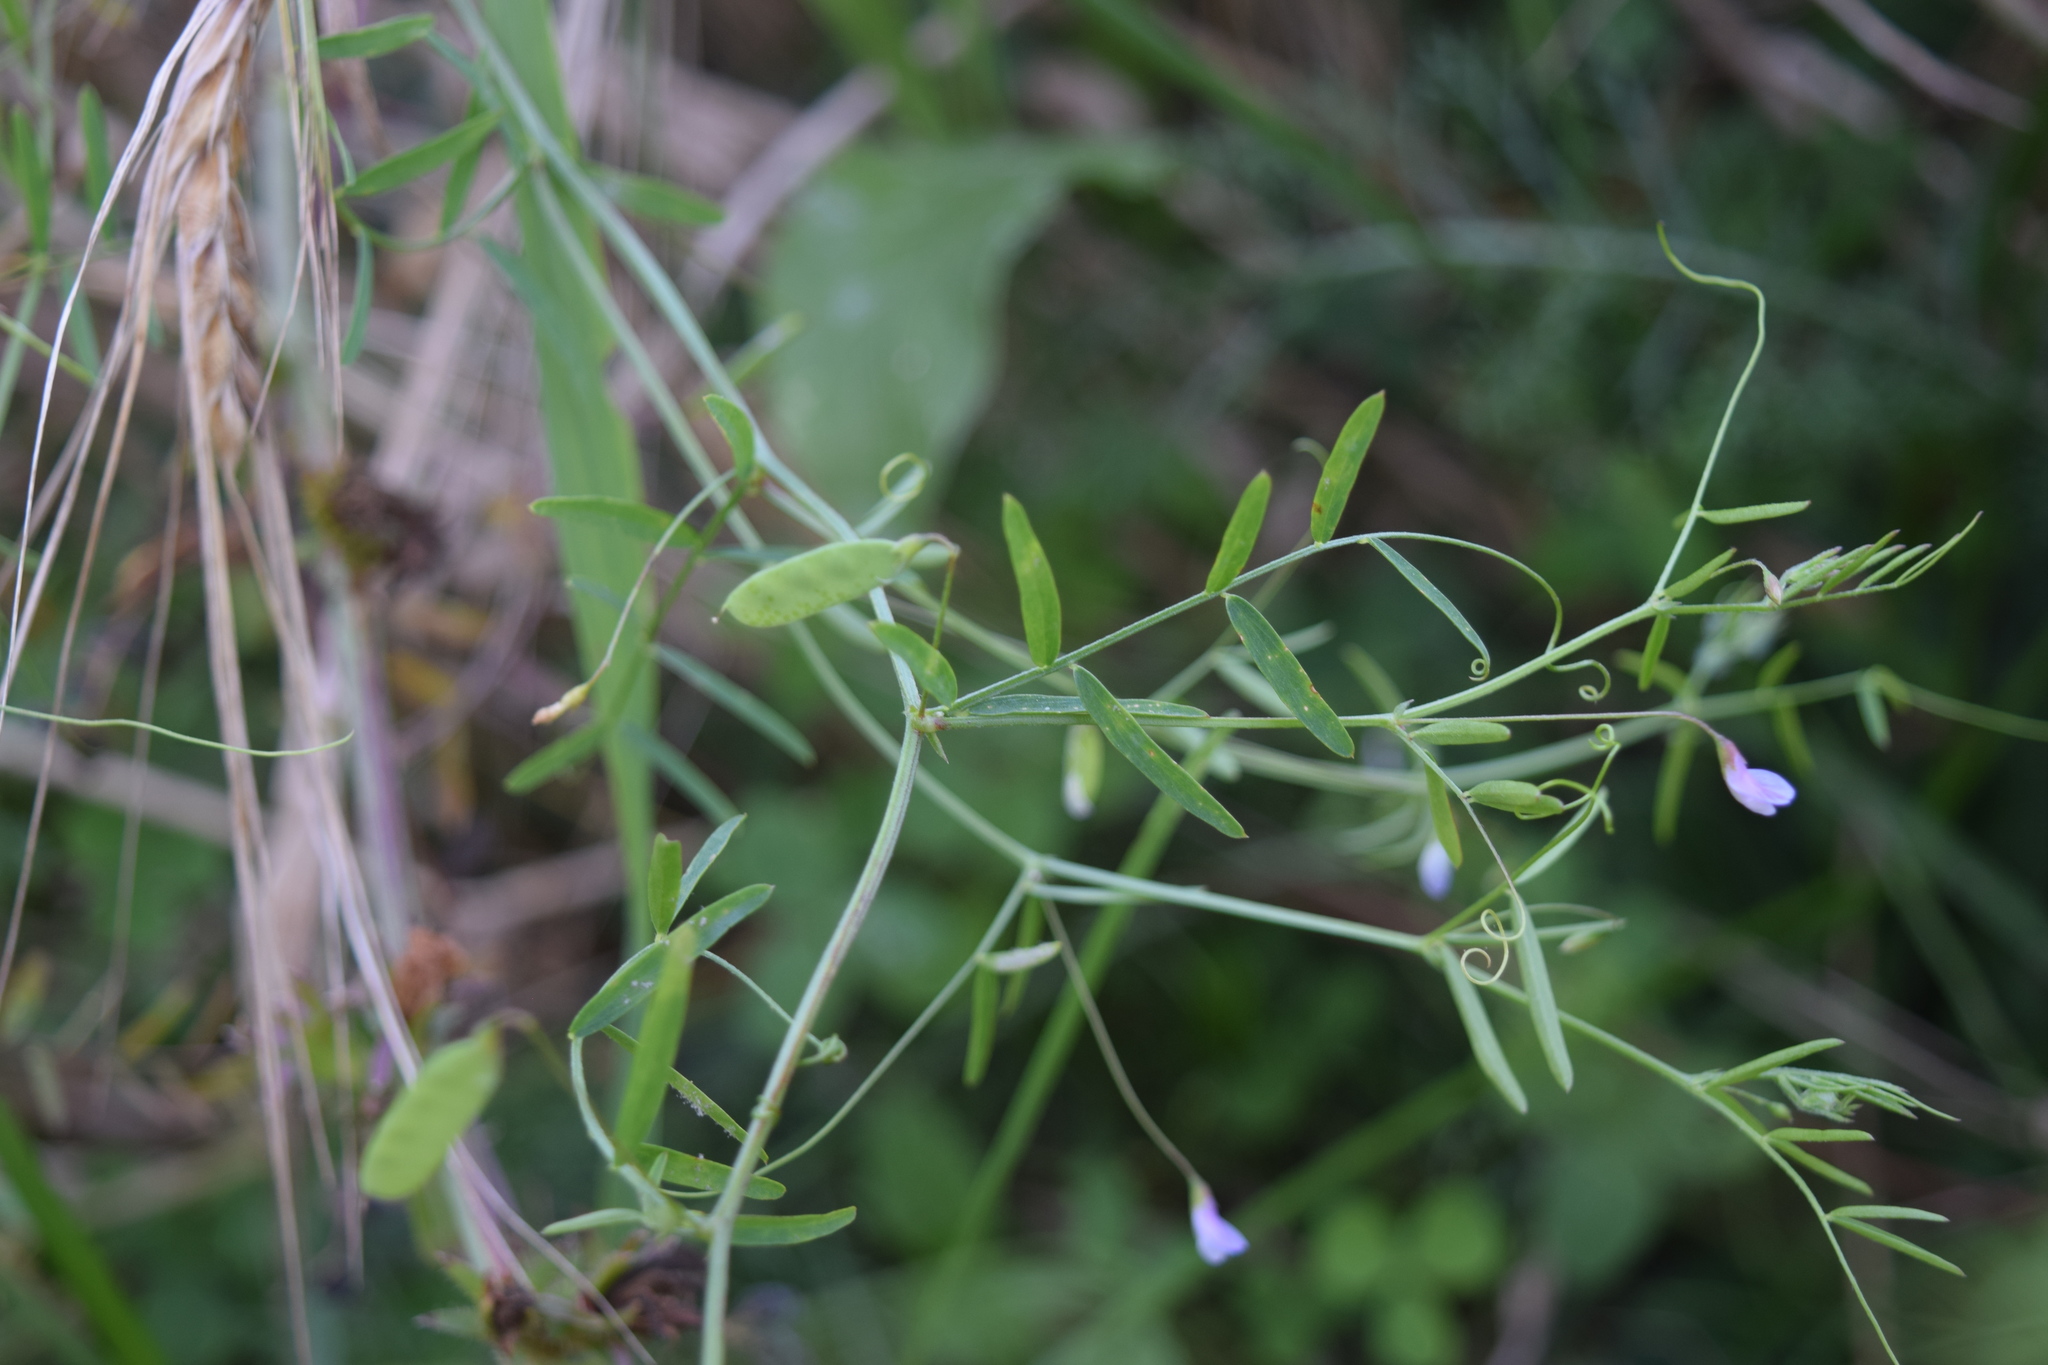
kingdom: Plantae
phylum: Tracheophyta
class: Magnoliopsida
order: Fabales
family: Fabaceae
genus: Vicia
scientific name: Vicia tetrasperma
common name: Smooth tare
